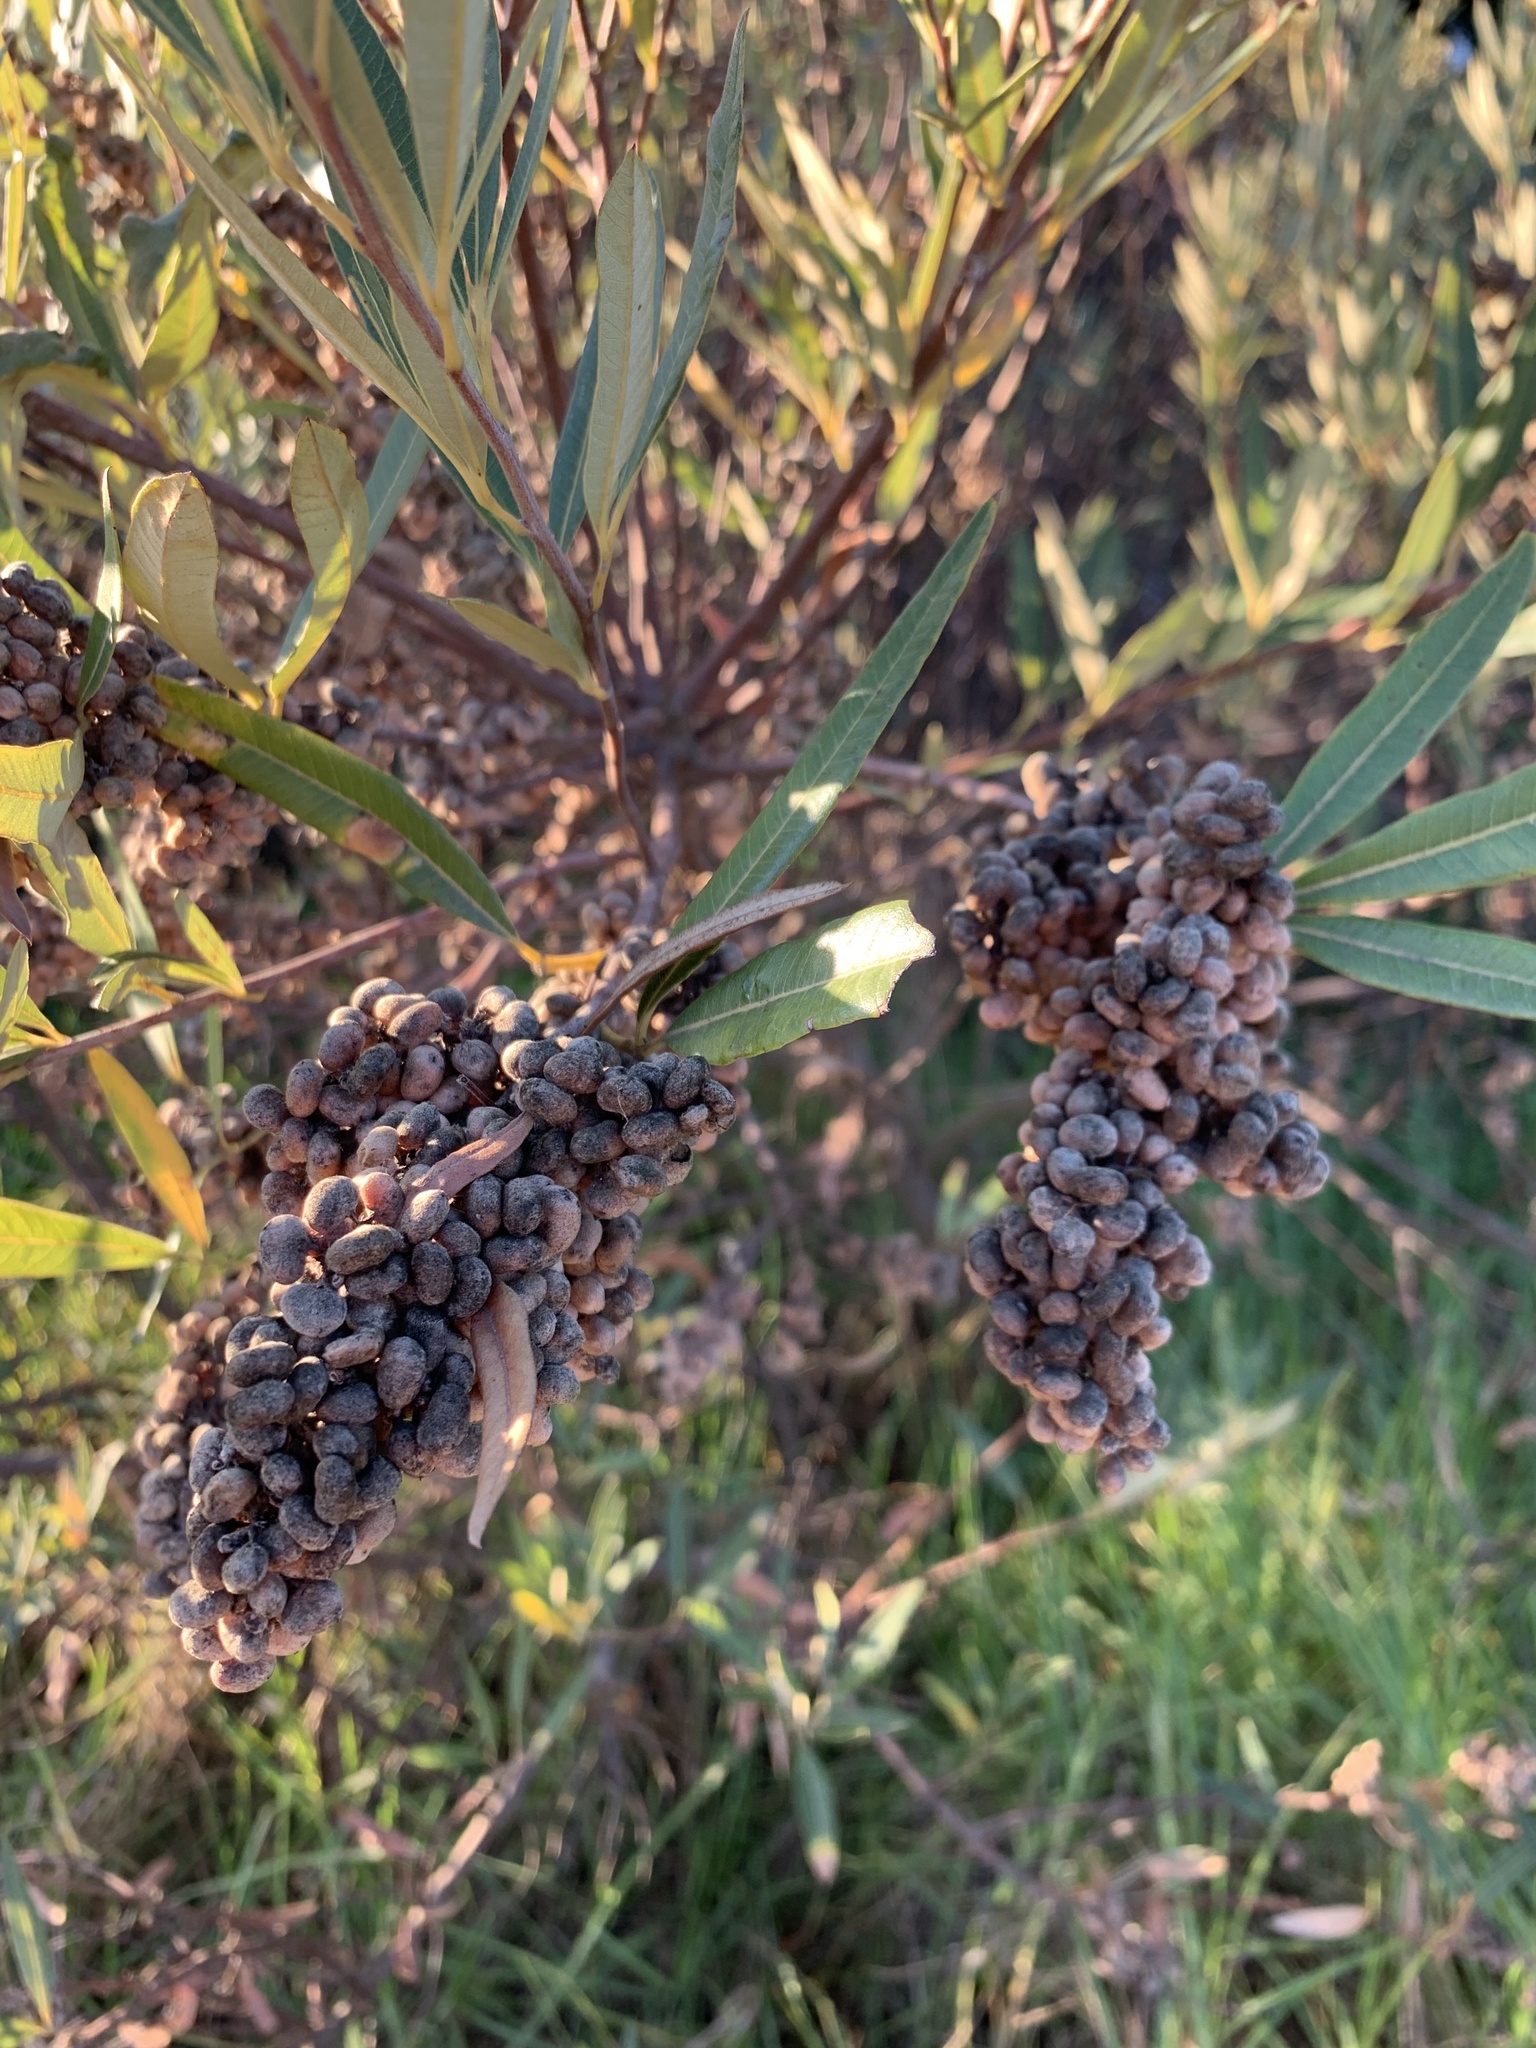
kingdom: Plantae
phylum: Tracheophyta
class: Magnoliopsida
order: Sapindales
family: Anacardiaceae
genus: Searsia
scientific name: Searsia angustifolia
